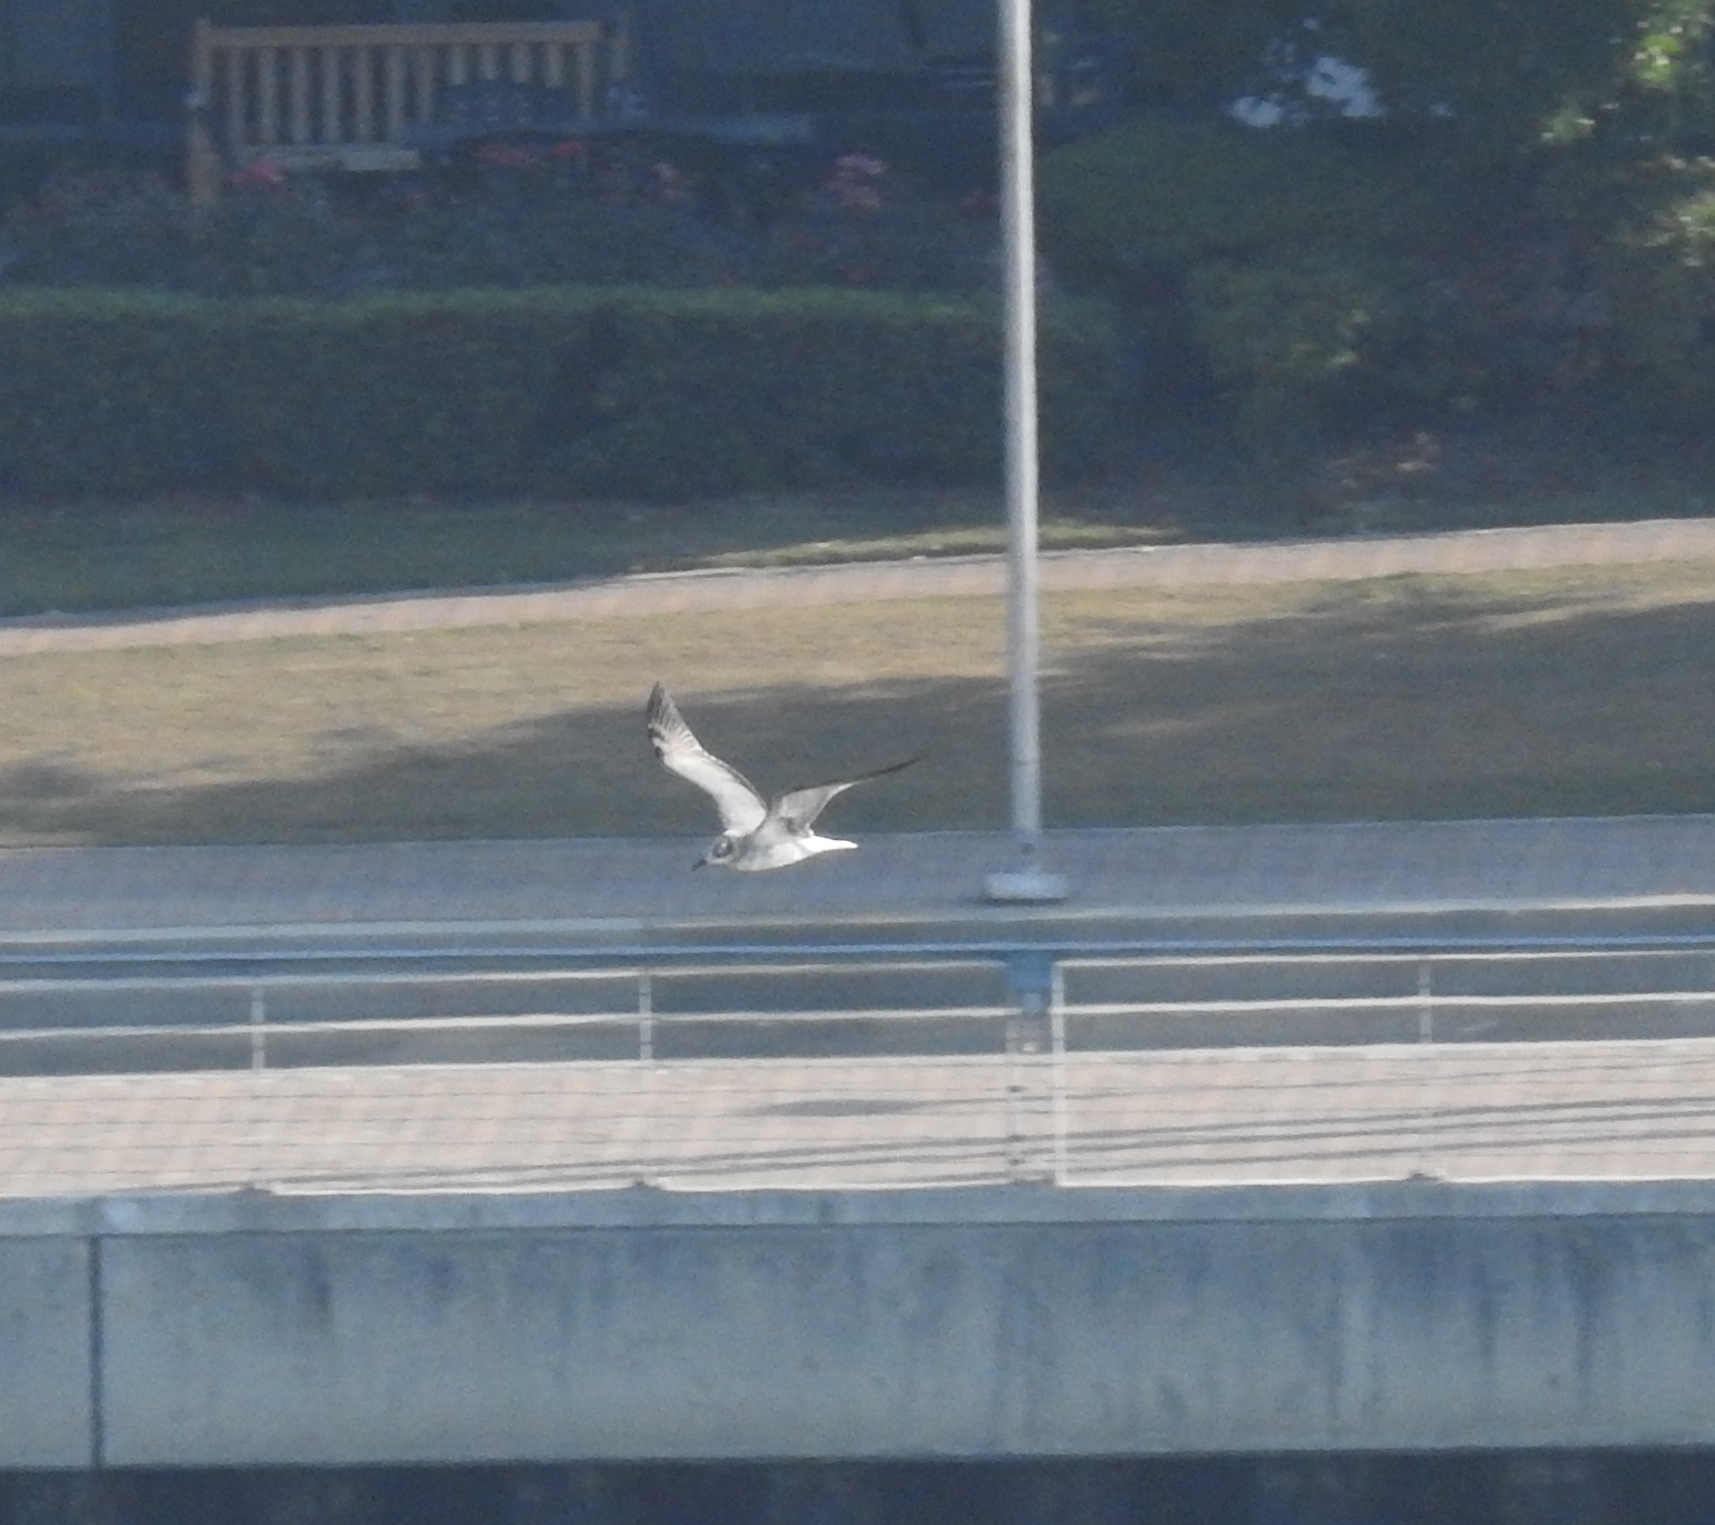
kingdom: Animalia
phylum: Chordata
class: Aves
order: Charadriiformes
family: Laridae
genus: Chroicocephalus
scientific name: Chroicocephalus philadelphia
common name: Bonaparte's gull
